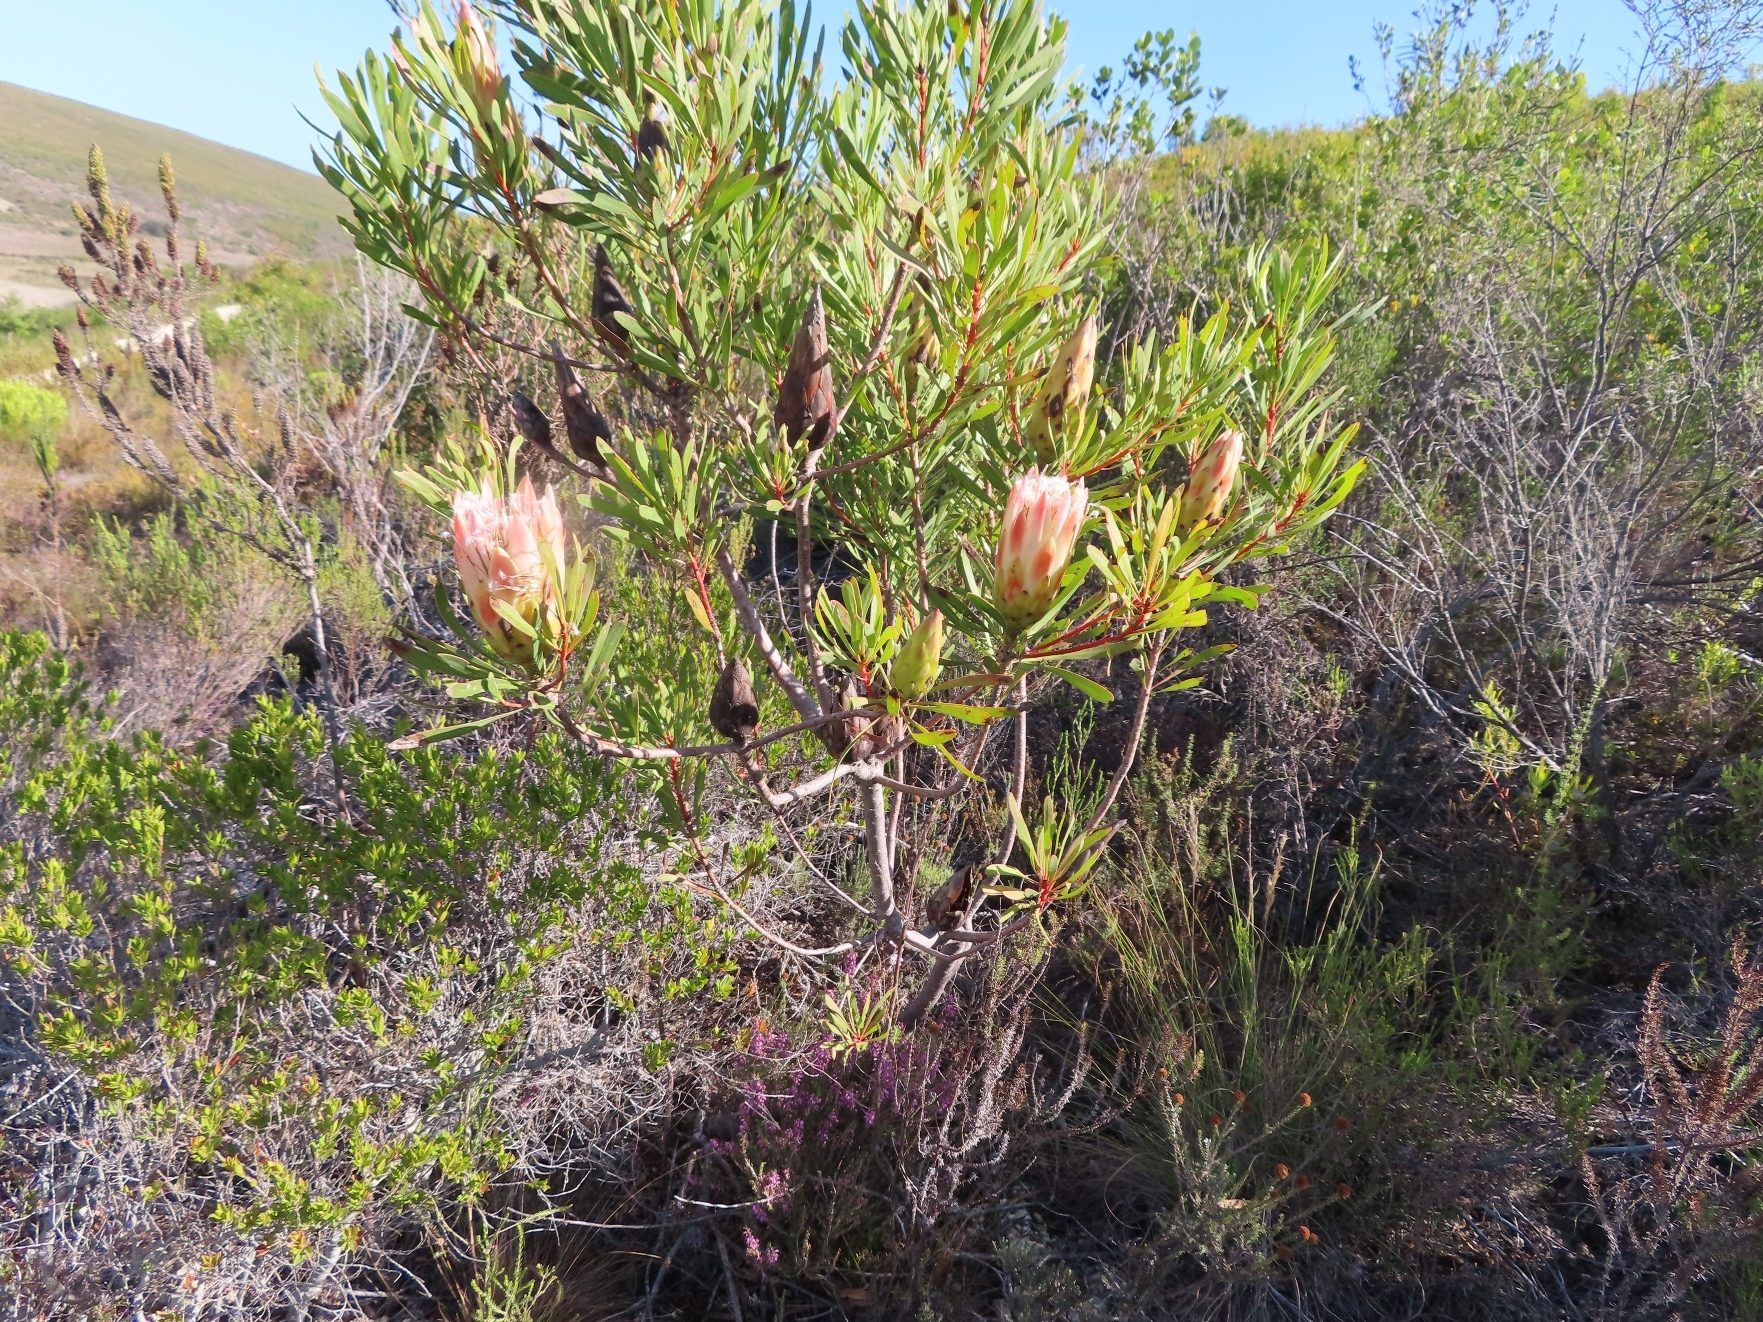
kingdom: Plantae
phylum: Tracheophyta
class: Magnoliopsida
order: Proteales
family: Proteaceae
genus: Protea
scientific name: Protea repens
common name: Sugarbush
